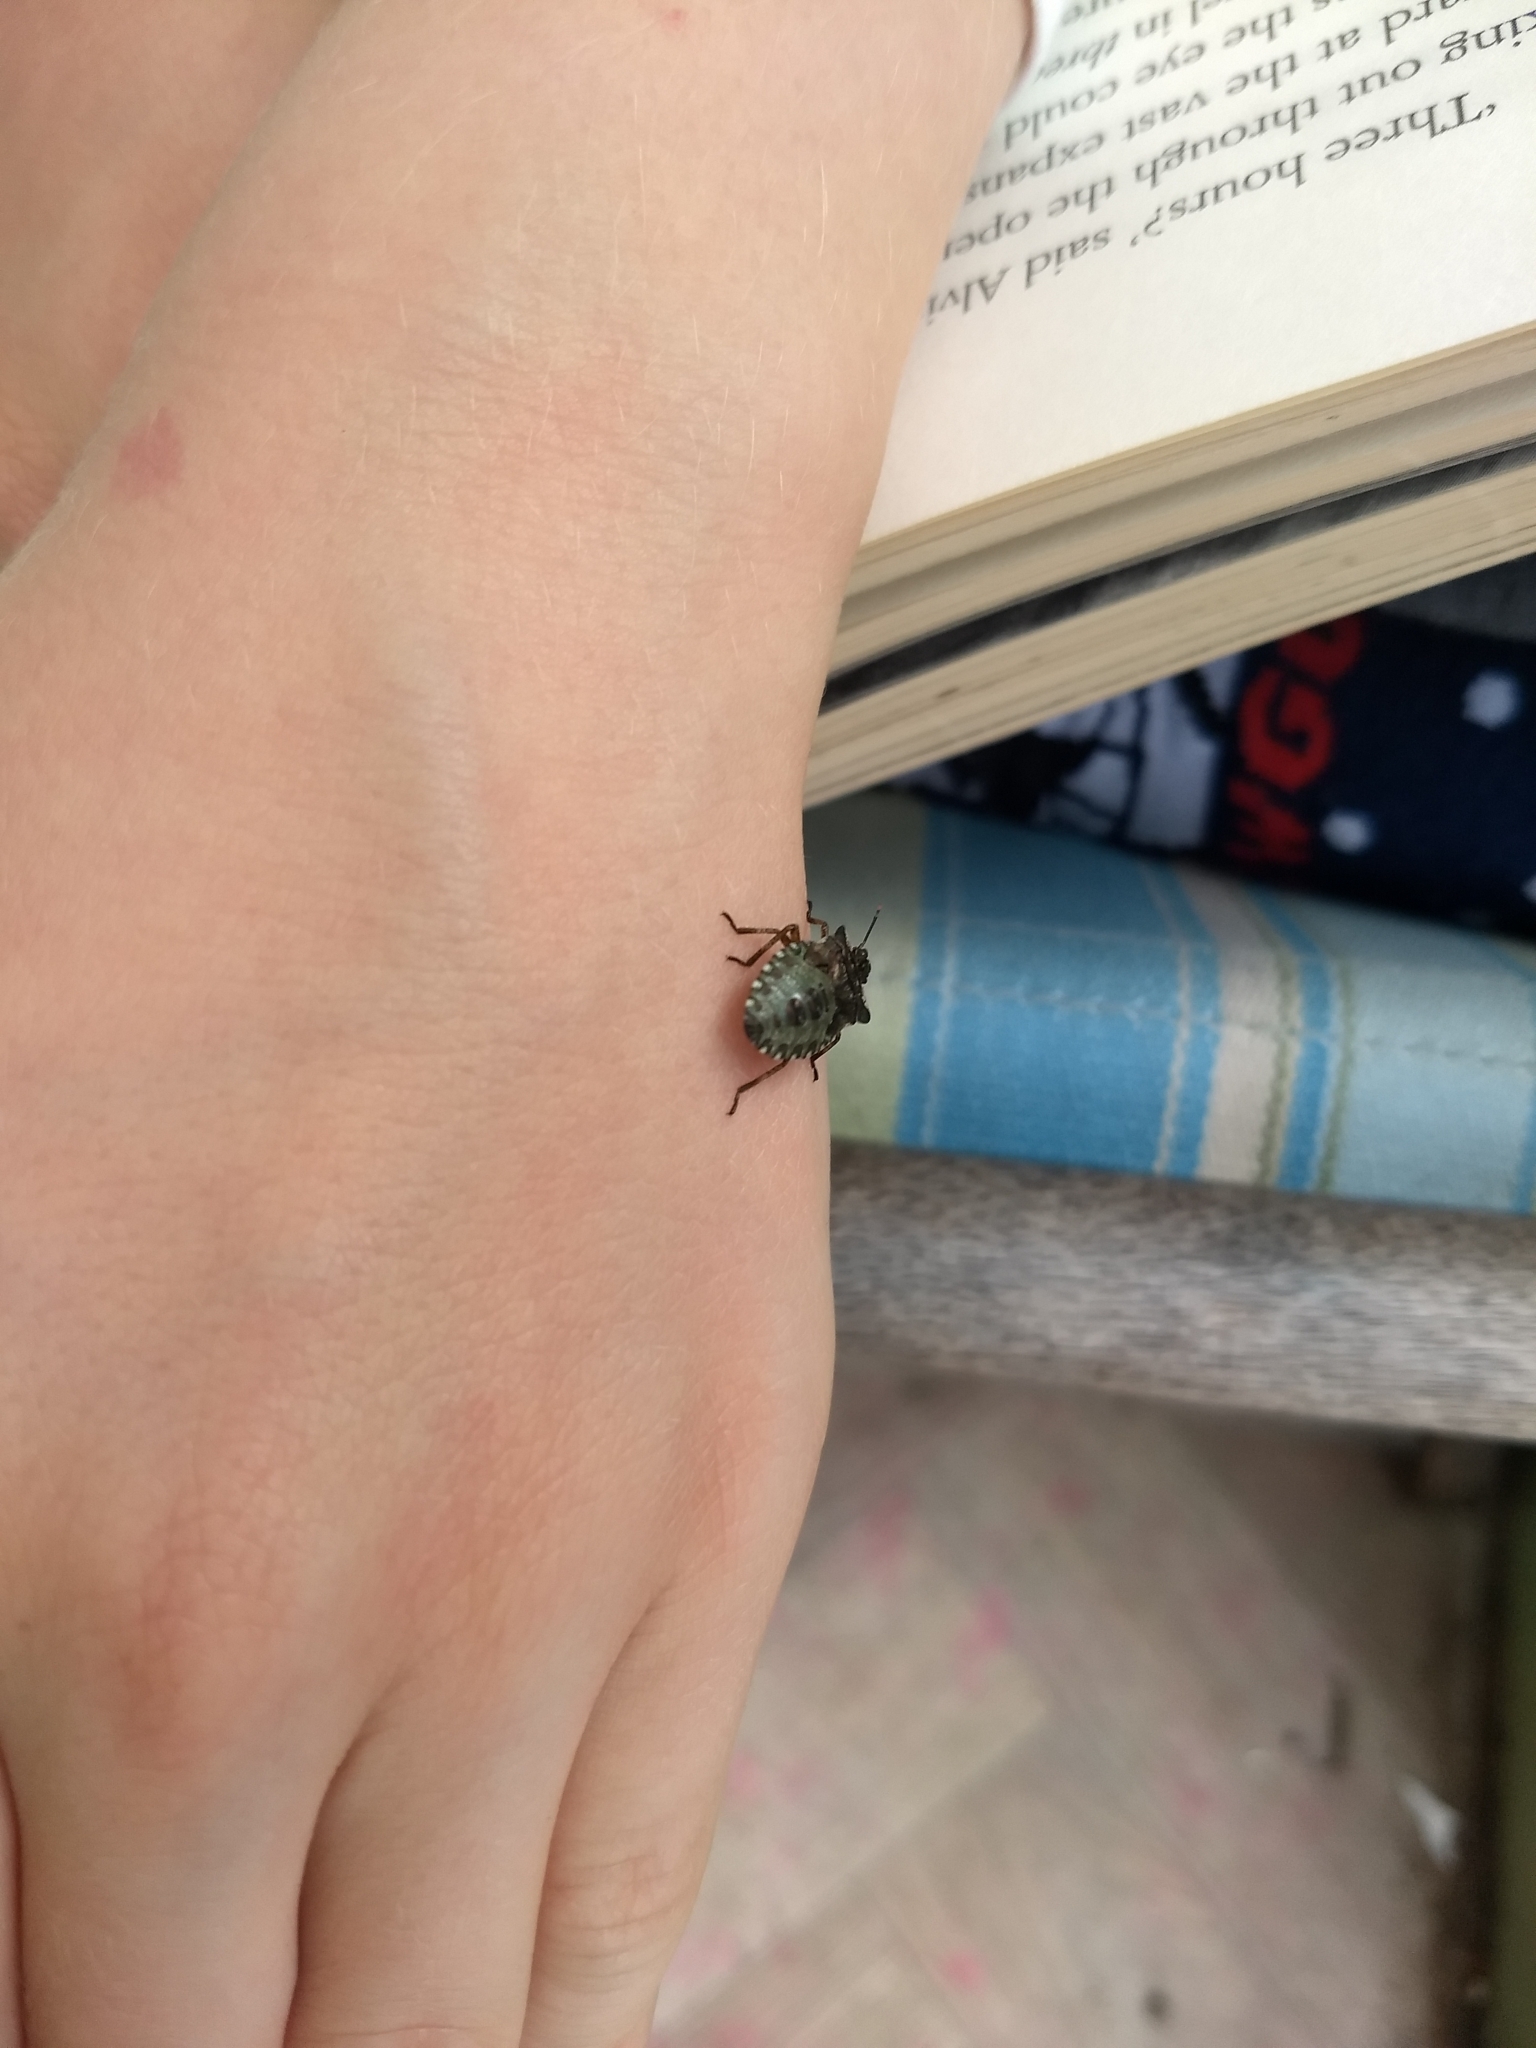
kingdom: Animalia
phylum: Arthropoda
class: Insecta
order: Hemiptera
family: Pentatomidae
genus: Pentatoma
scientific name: Pentatoma rufipes
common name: Forest bug
